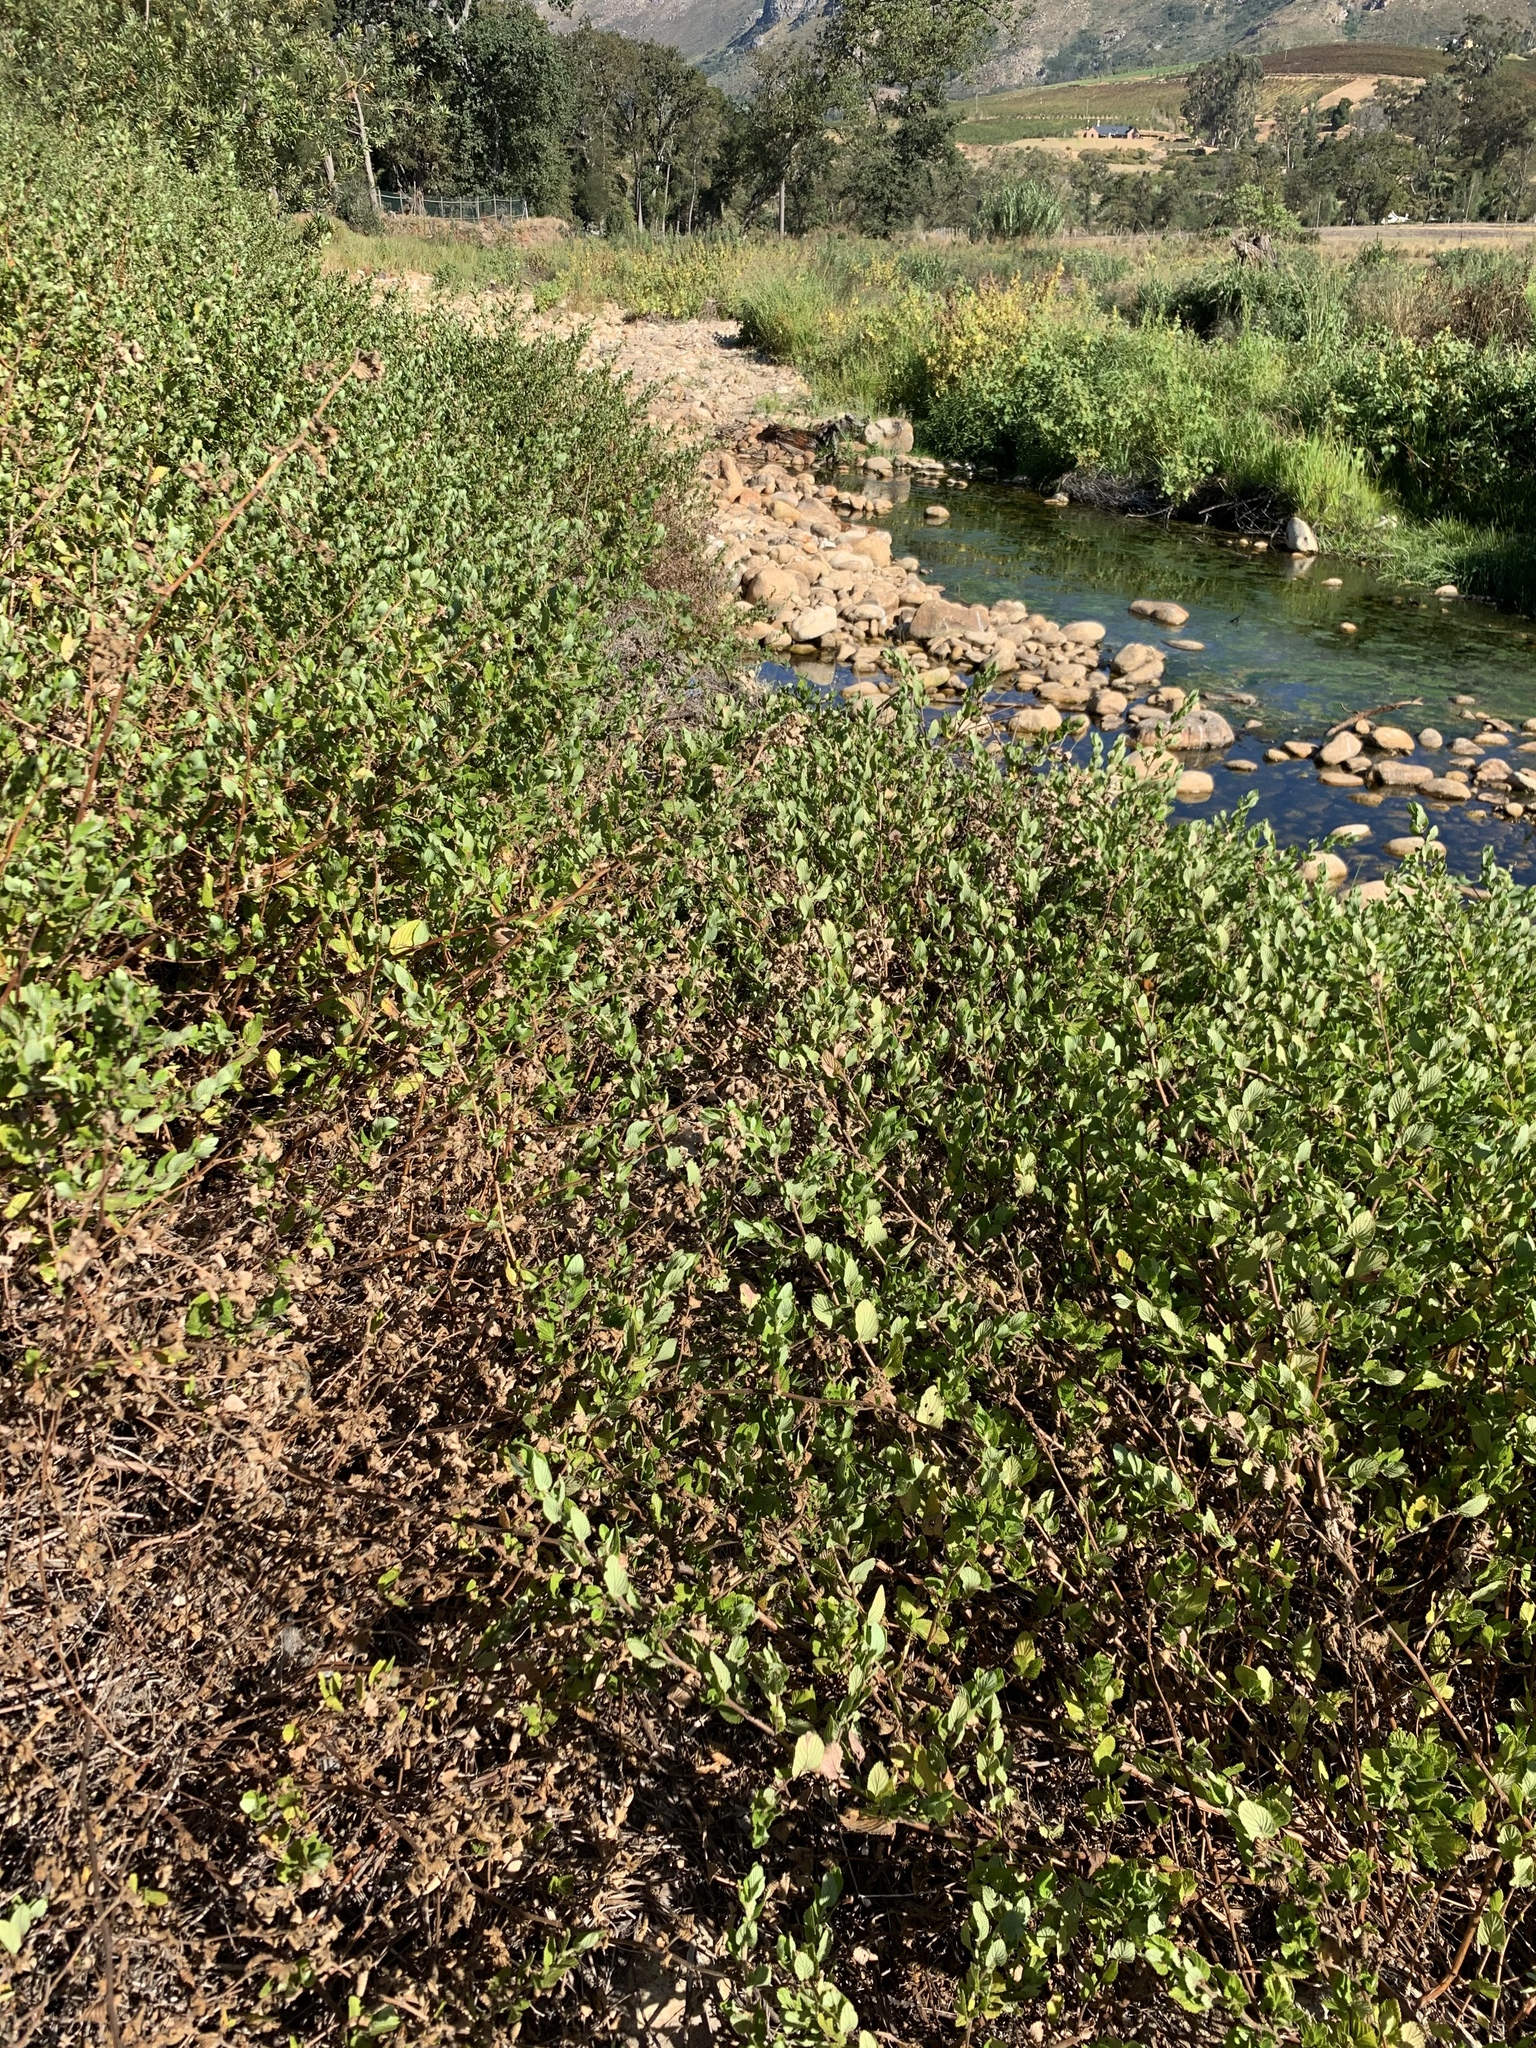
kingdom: Plantae
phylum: Tracheophyta
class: Magnoliopsida
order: Rosales
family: Rosaceae
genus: Cliffortia
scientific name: Cliffortia odorata
